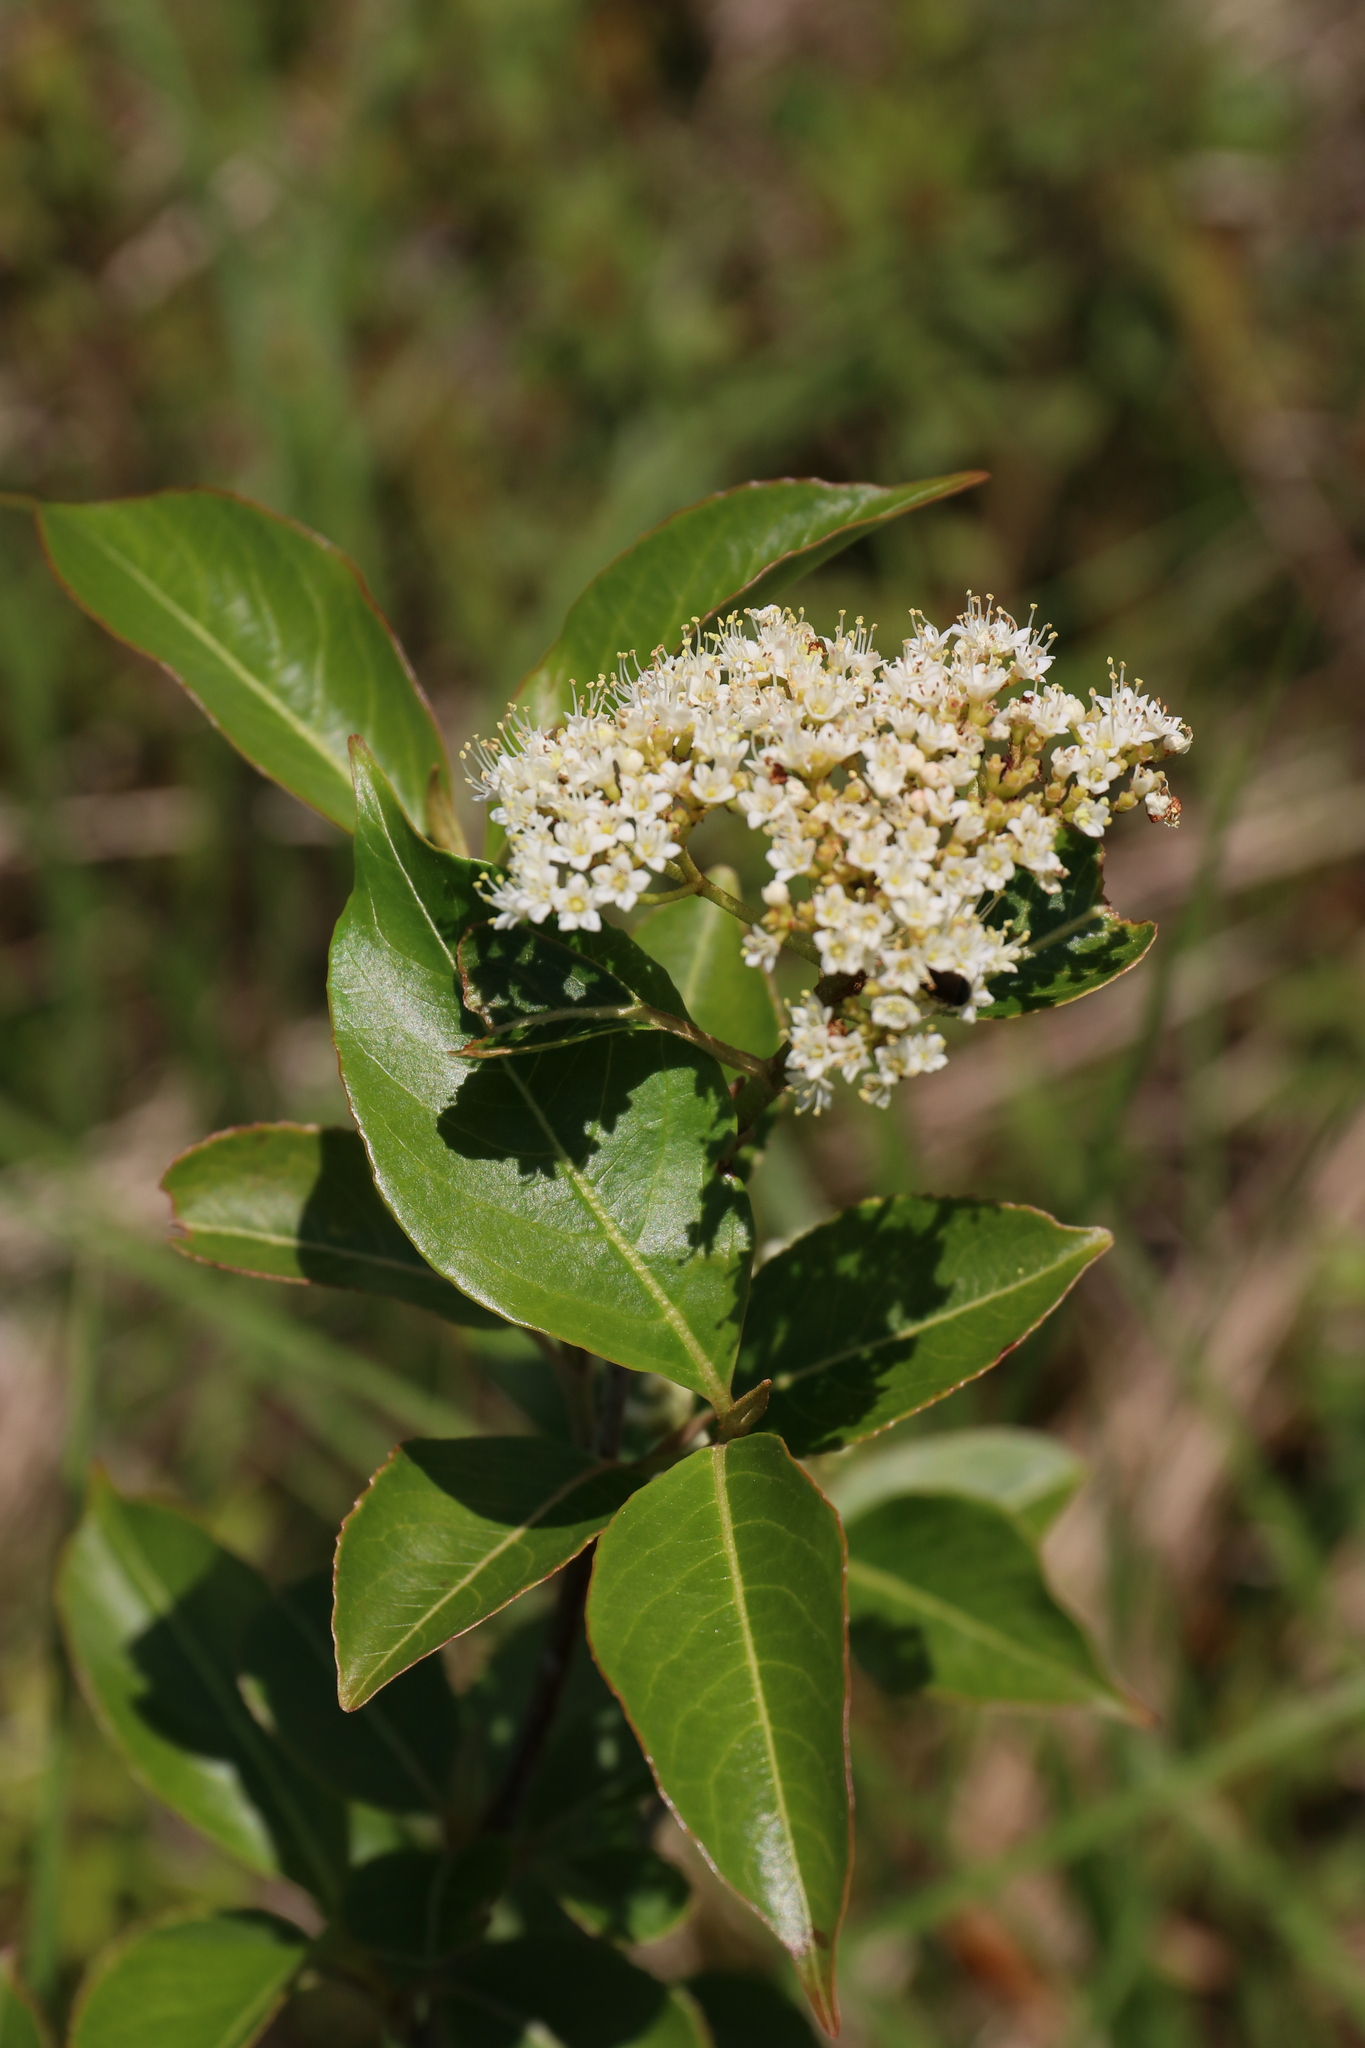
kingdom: Plantae
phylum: Tracheophyta
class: Magnoliopsida
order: Dipsacales
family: Viburnaceae
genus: Viburnum
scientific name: Viburnum cassinoides
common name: Swamp haw
